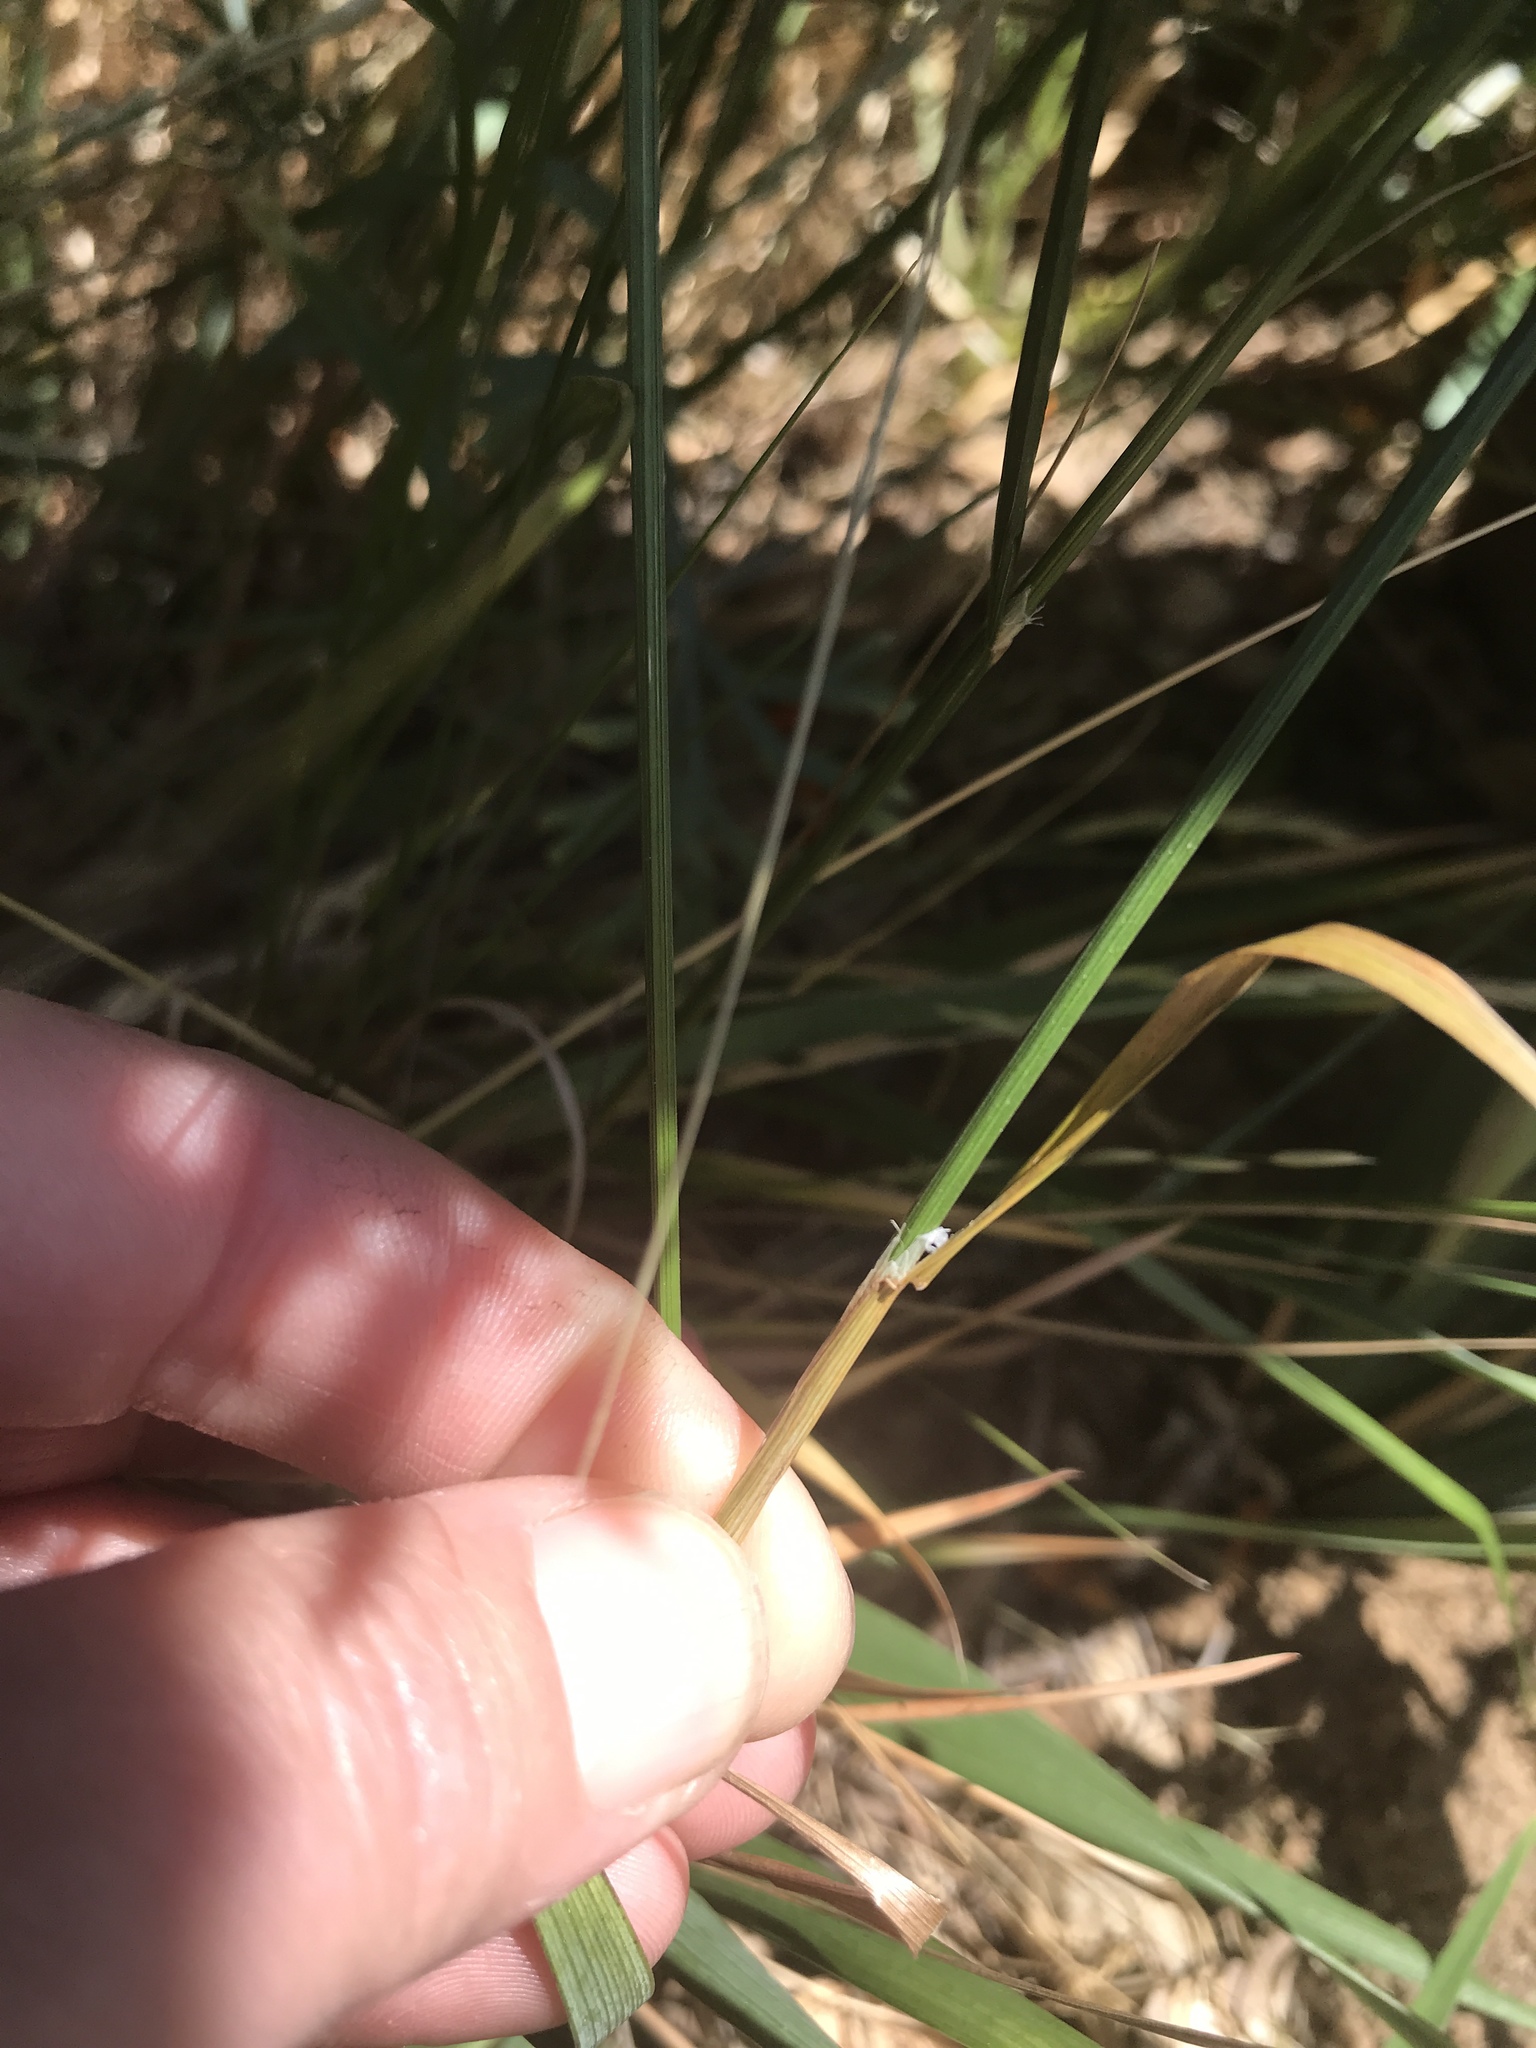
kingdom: Plantae
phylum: Tracheophyta
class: Liliopsida
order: Poales
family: Poaceae
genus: Melica
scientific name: Melica californica
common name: California melic
